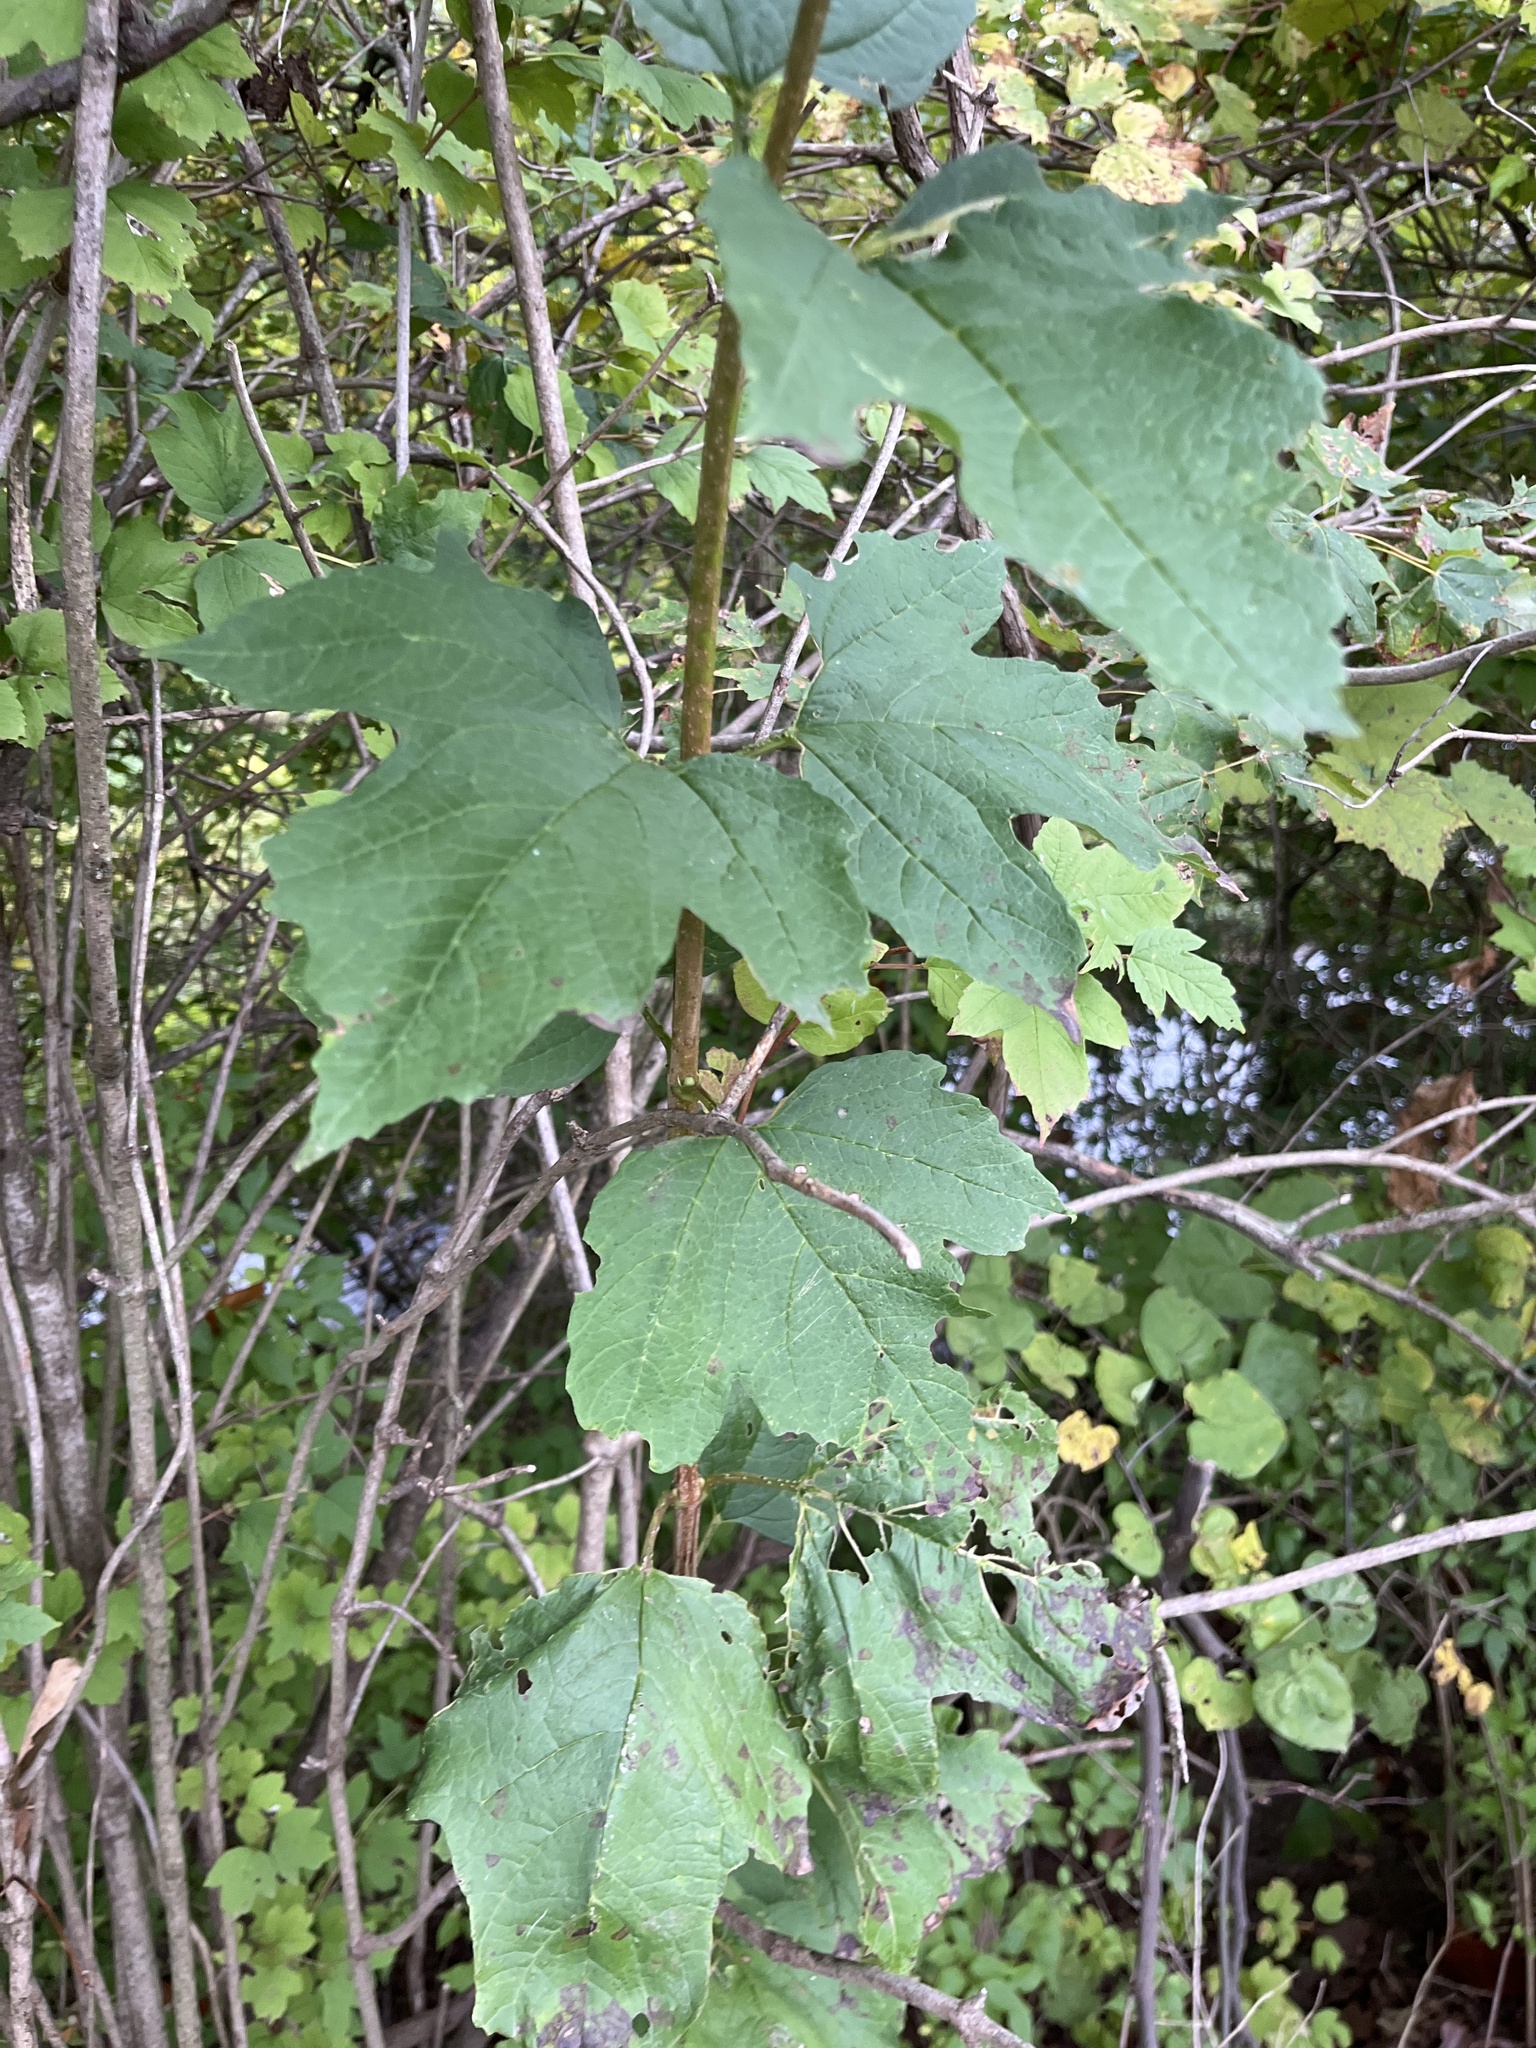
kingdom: Plantae
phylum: Tracheophyta
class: Magnoliopsida
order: Dipsacales
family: Viburnaceae
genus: Viburnum
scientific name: Viburnum opulus
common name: Guelder-rose
